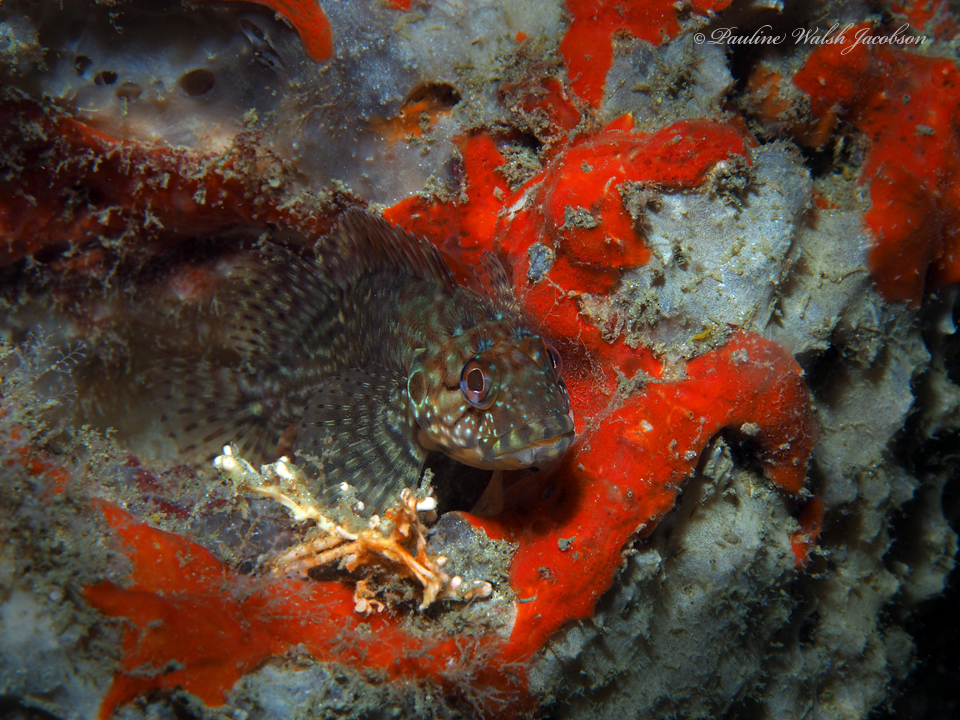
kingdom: Animalia
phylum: Chordata
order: Perciformes
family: Labrisomidae
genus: Labrisomus
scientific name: Labrisomus conditus
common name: Masquerader hairy blenny
